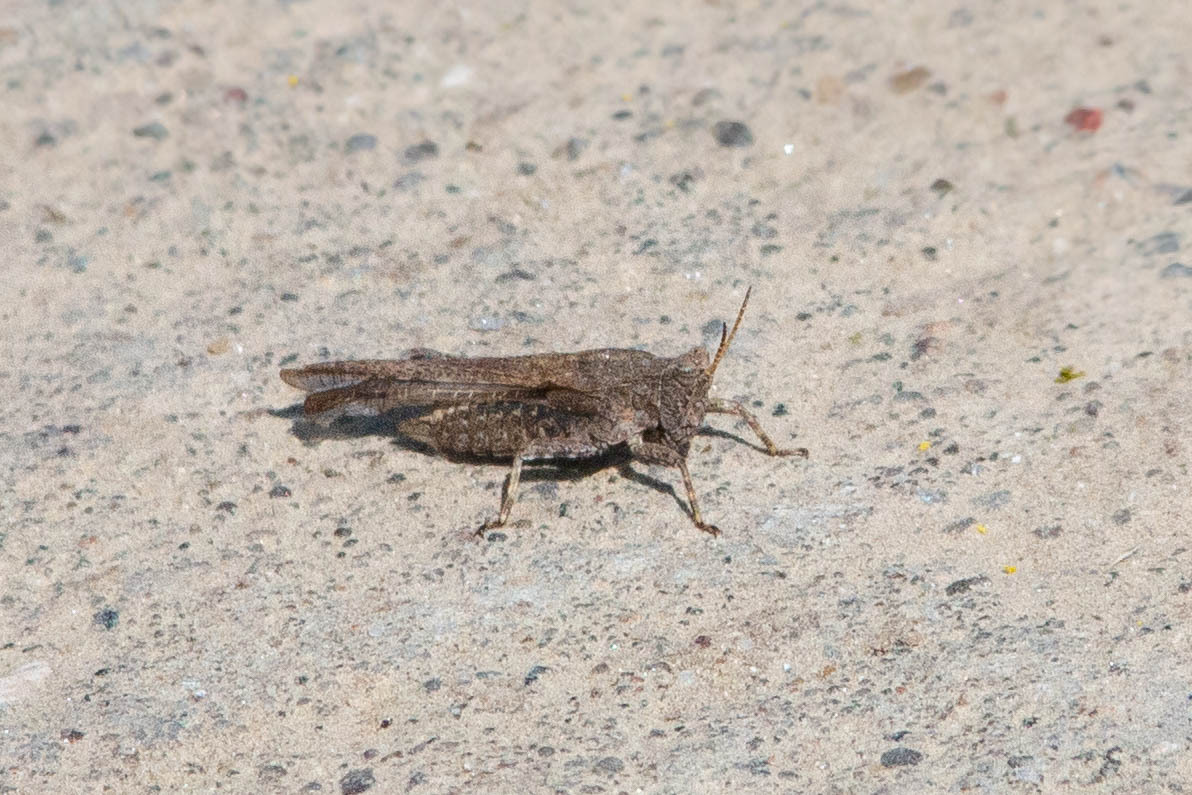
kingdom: Animalia
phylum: Arthropoda
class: Insecta
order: Orthoptera
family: Tetrigidae
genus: Tetrix
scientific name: Tetrix subulata
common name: Slender ground-hopper
